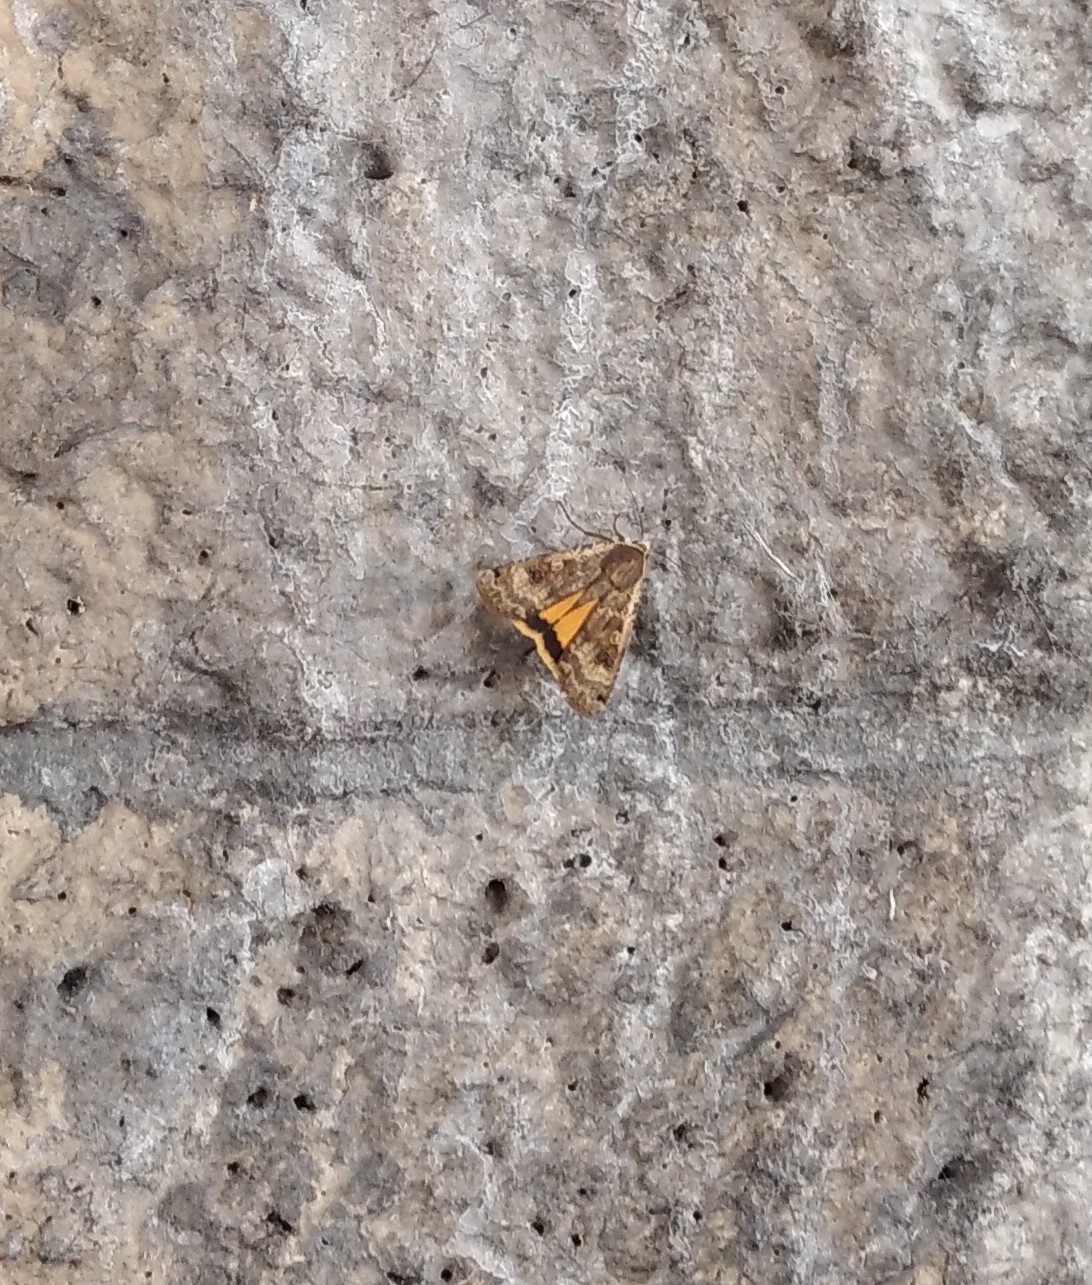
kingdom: Animalia
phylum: Arthropoda
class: Insecta
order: Lepidoptera
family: Noctuidae
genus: Noctua
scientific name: Noctua pronuba
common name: Large yellow underwing
